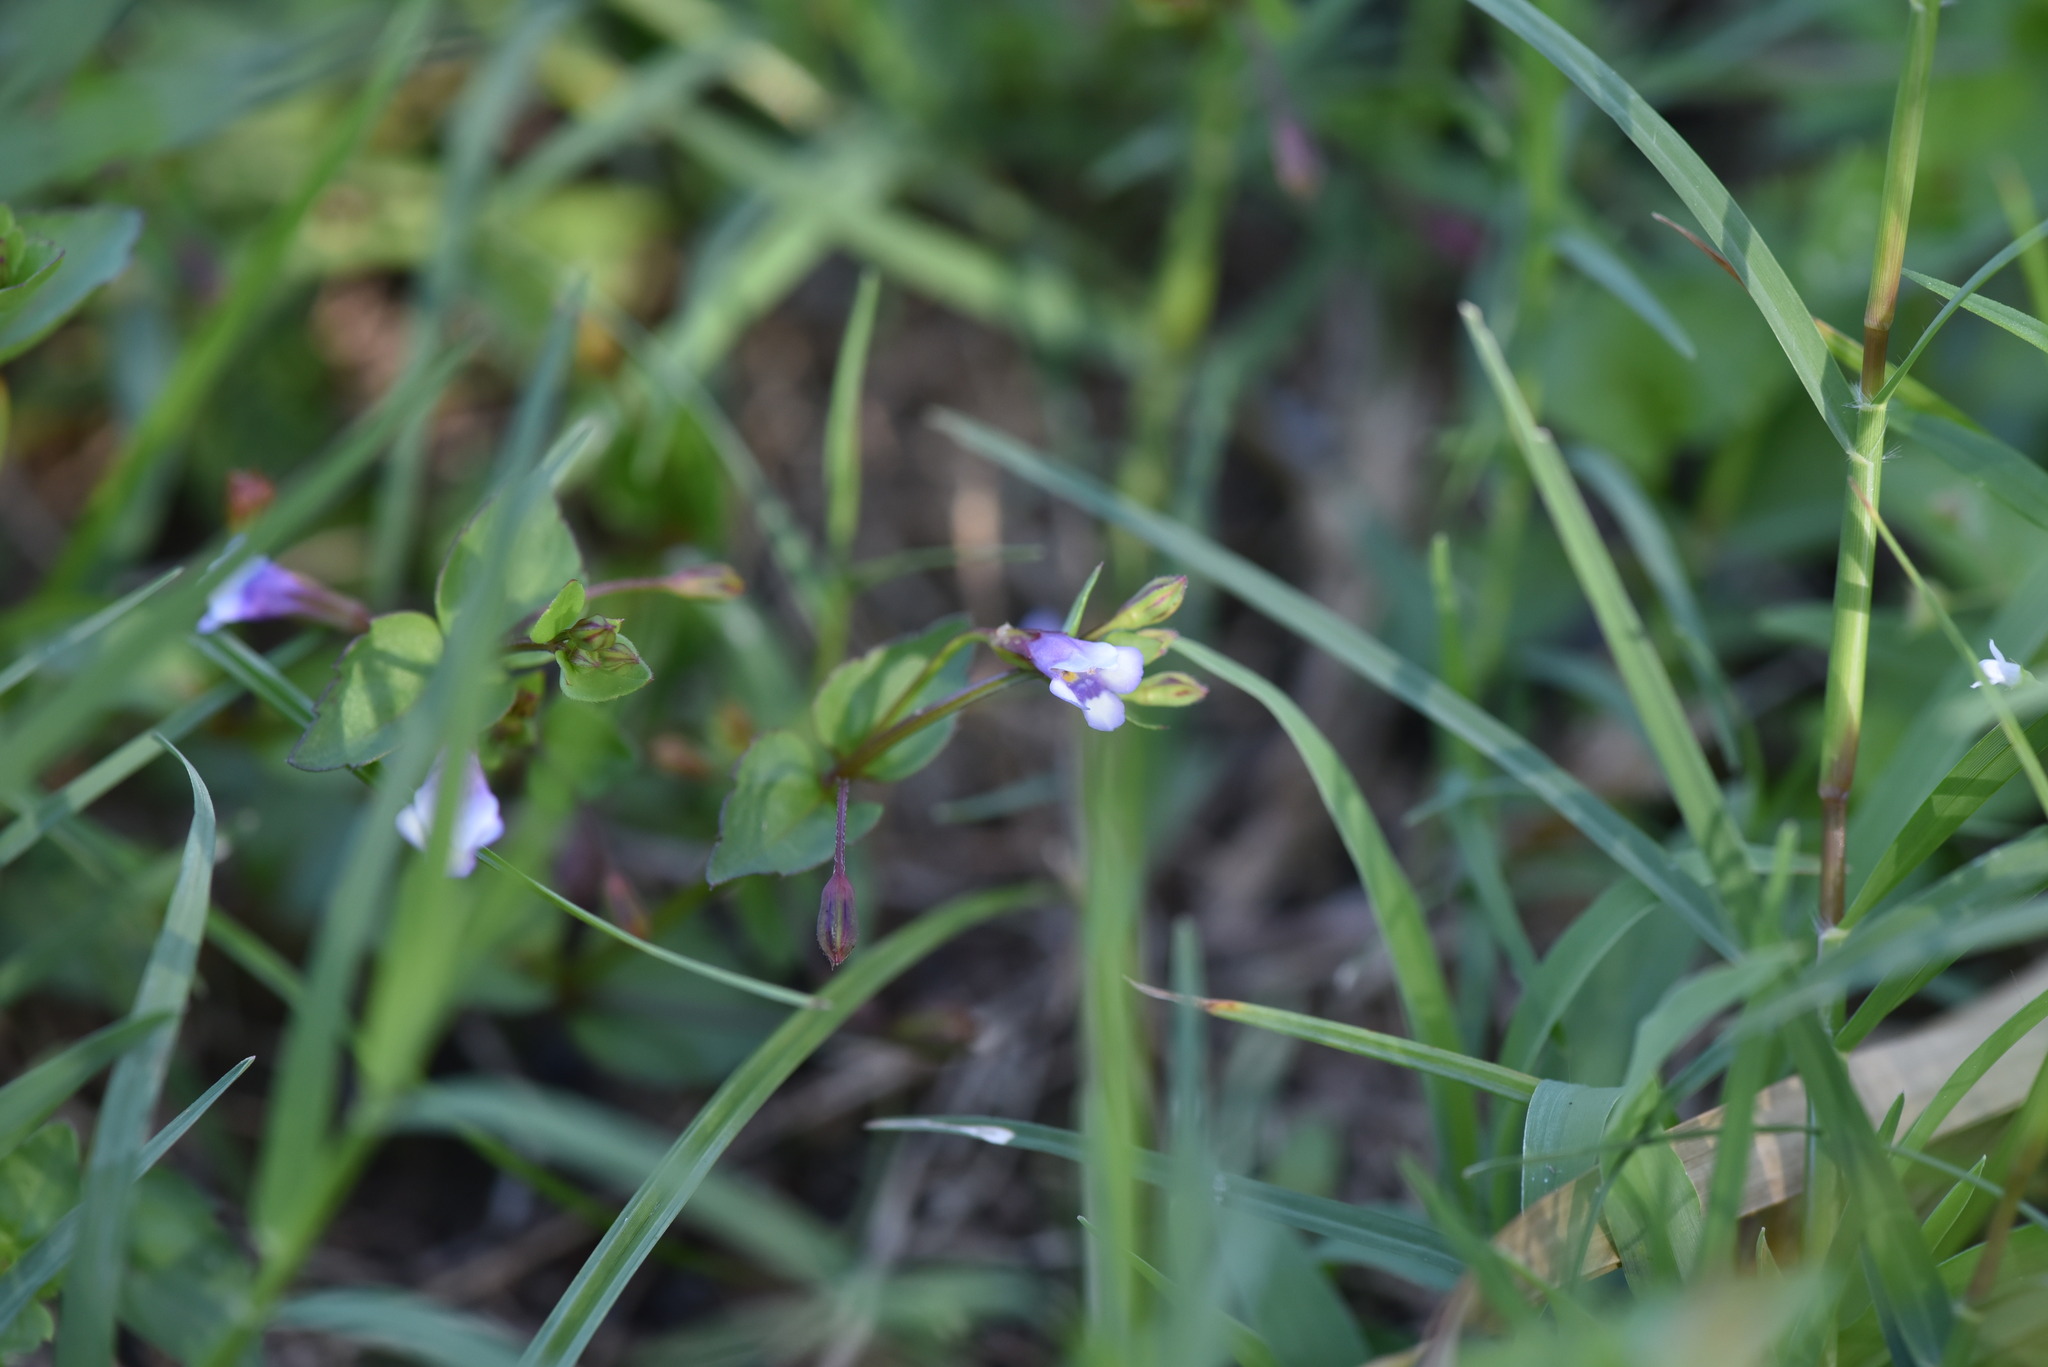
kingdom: Plantae
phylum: Tracheophyta
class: Magnoliopsida
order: Lamiales
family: Linderniaceae
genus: Torenia
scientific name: Torenia crustacea
